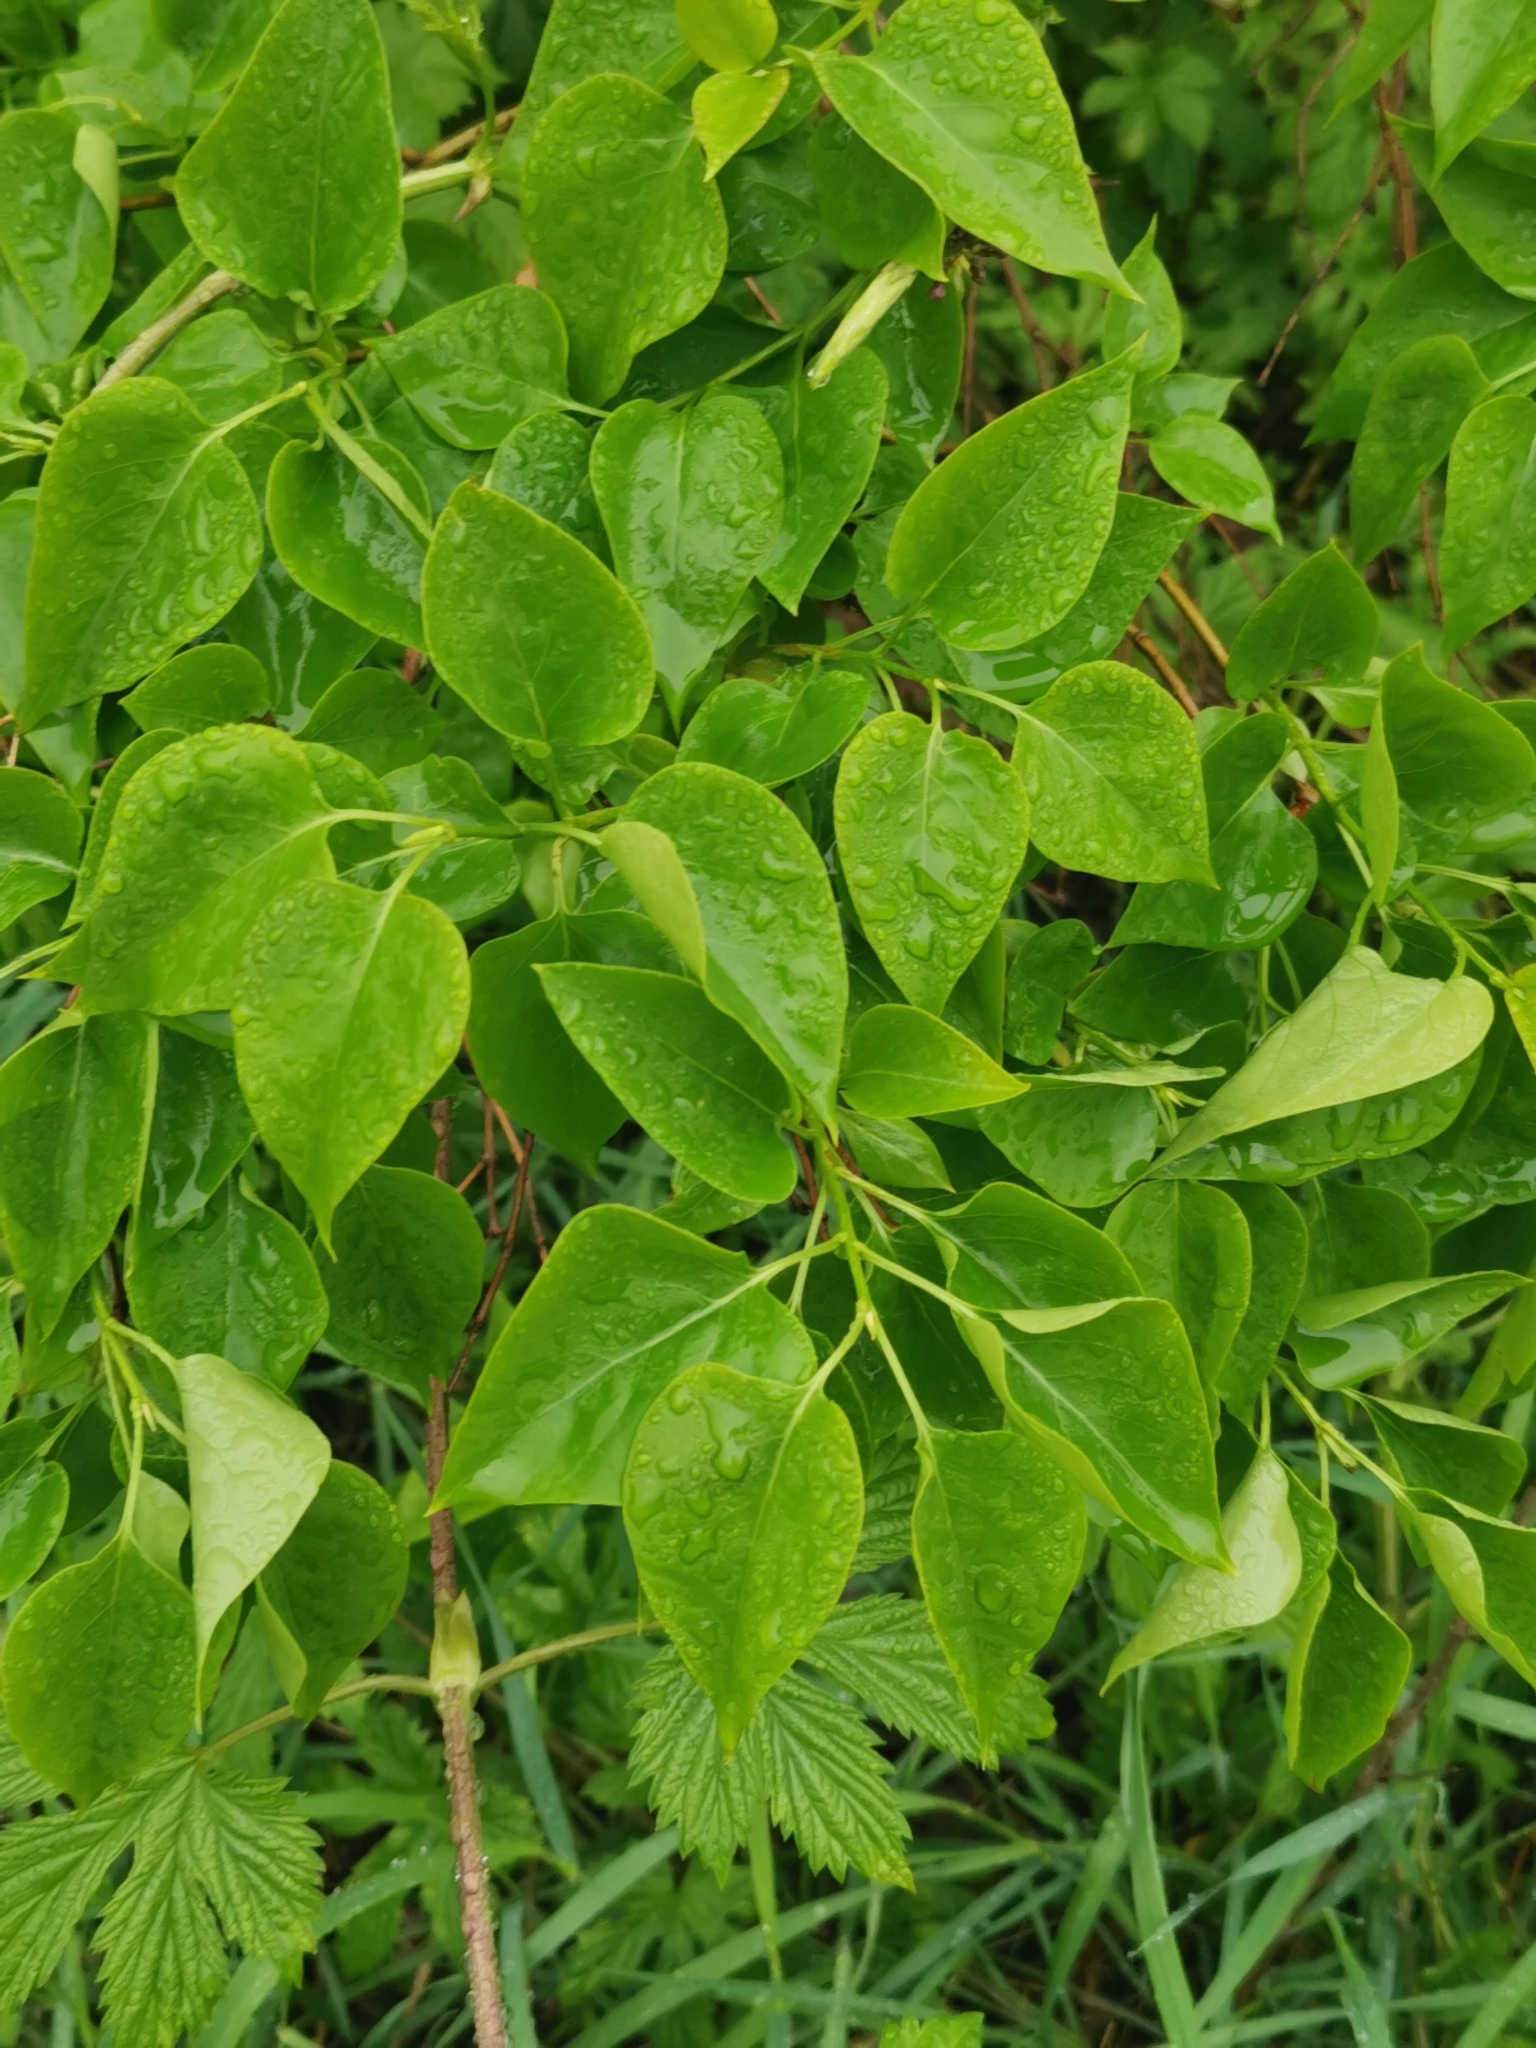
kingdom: Plantae
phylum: Tracheophyta
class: Magnoliopsida
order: Lamiales
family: Oleaceae
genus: Syringa
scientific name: Syringa vulgaris
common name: Common lilac
